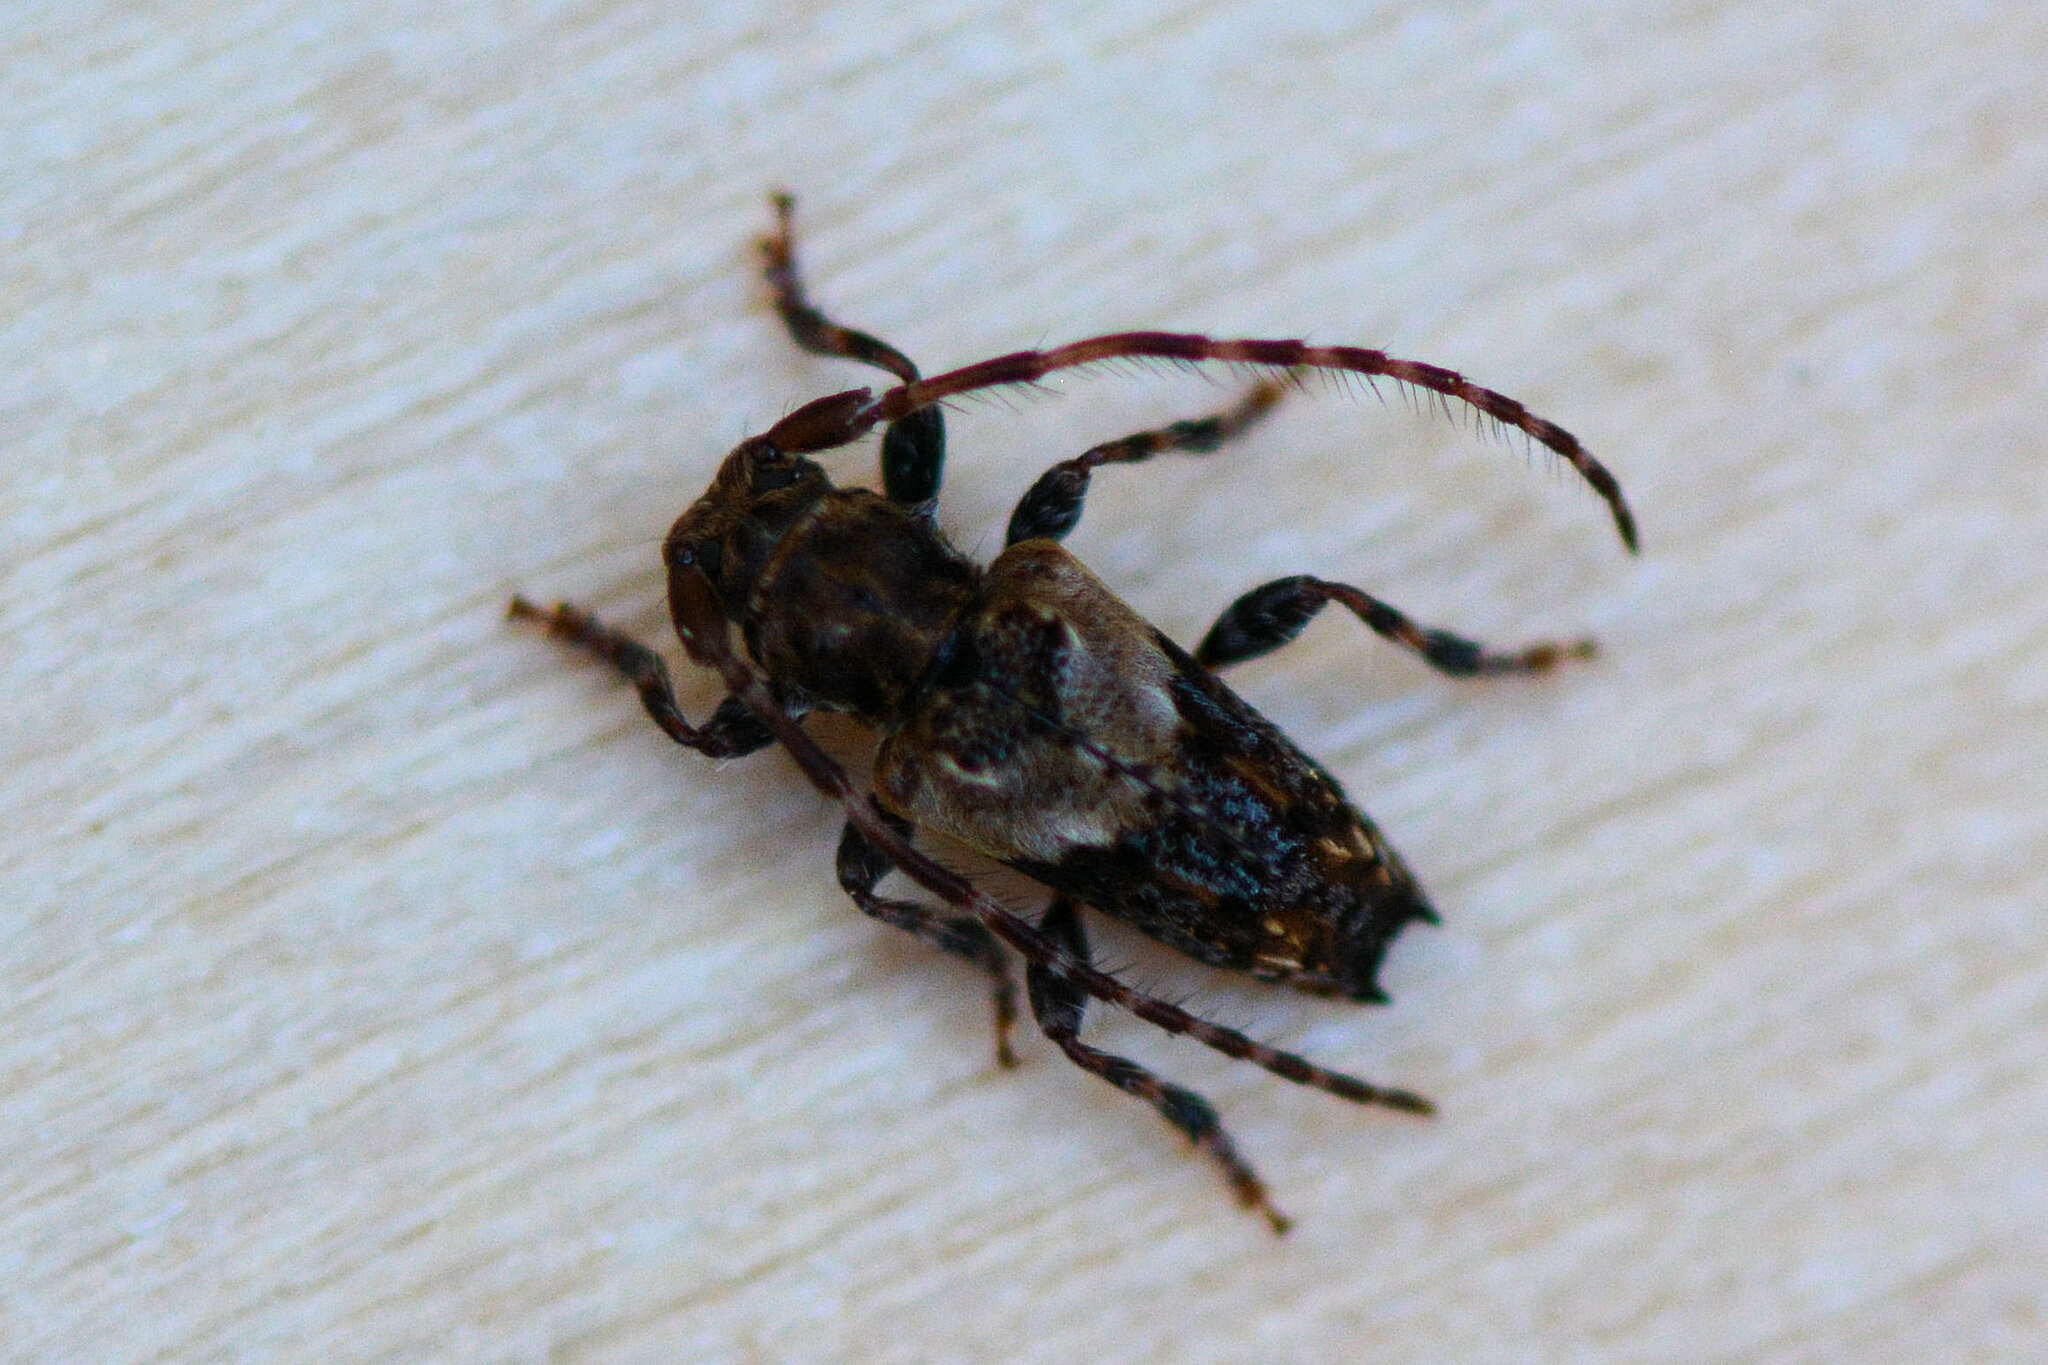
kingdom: Animalia
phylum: Arthropoda
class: Insecta
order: Coleoptera
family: Cerambycidae
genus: Pogonocherus
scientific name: Pogonocherus hispidus
